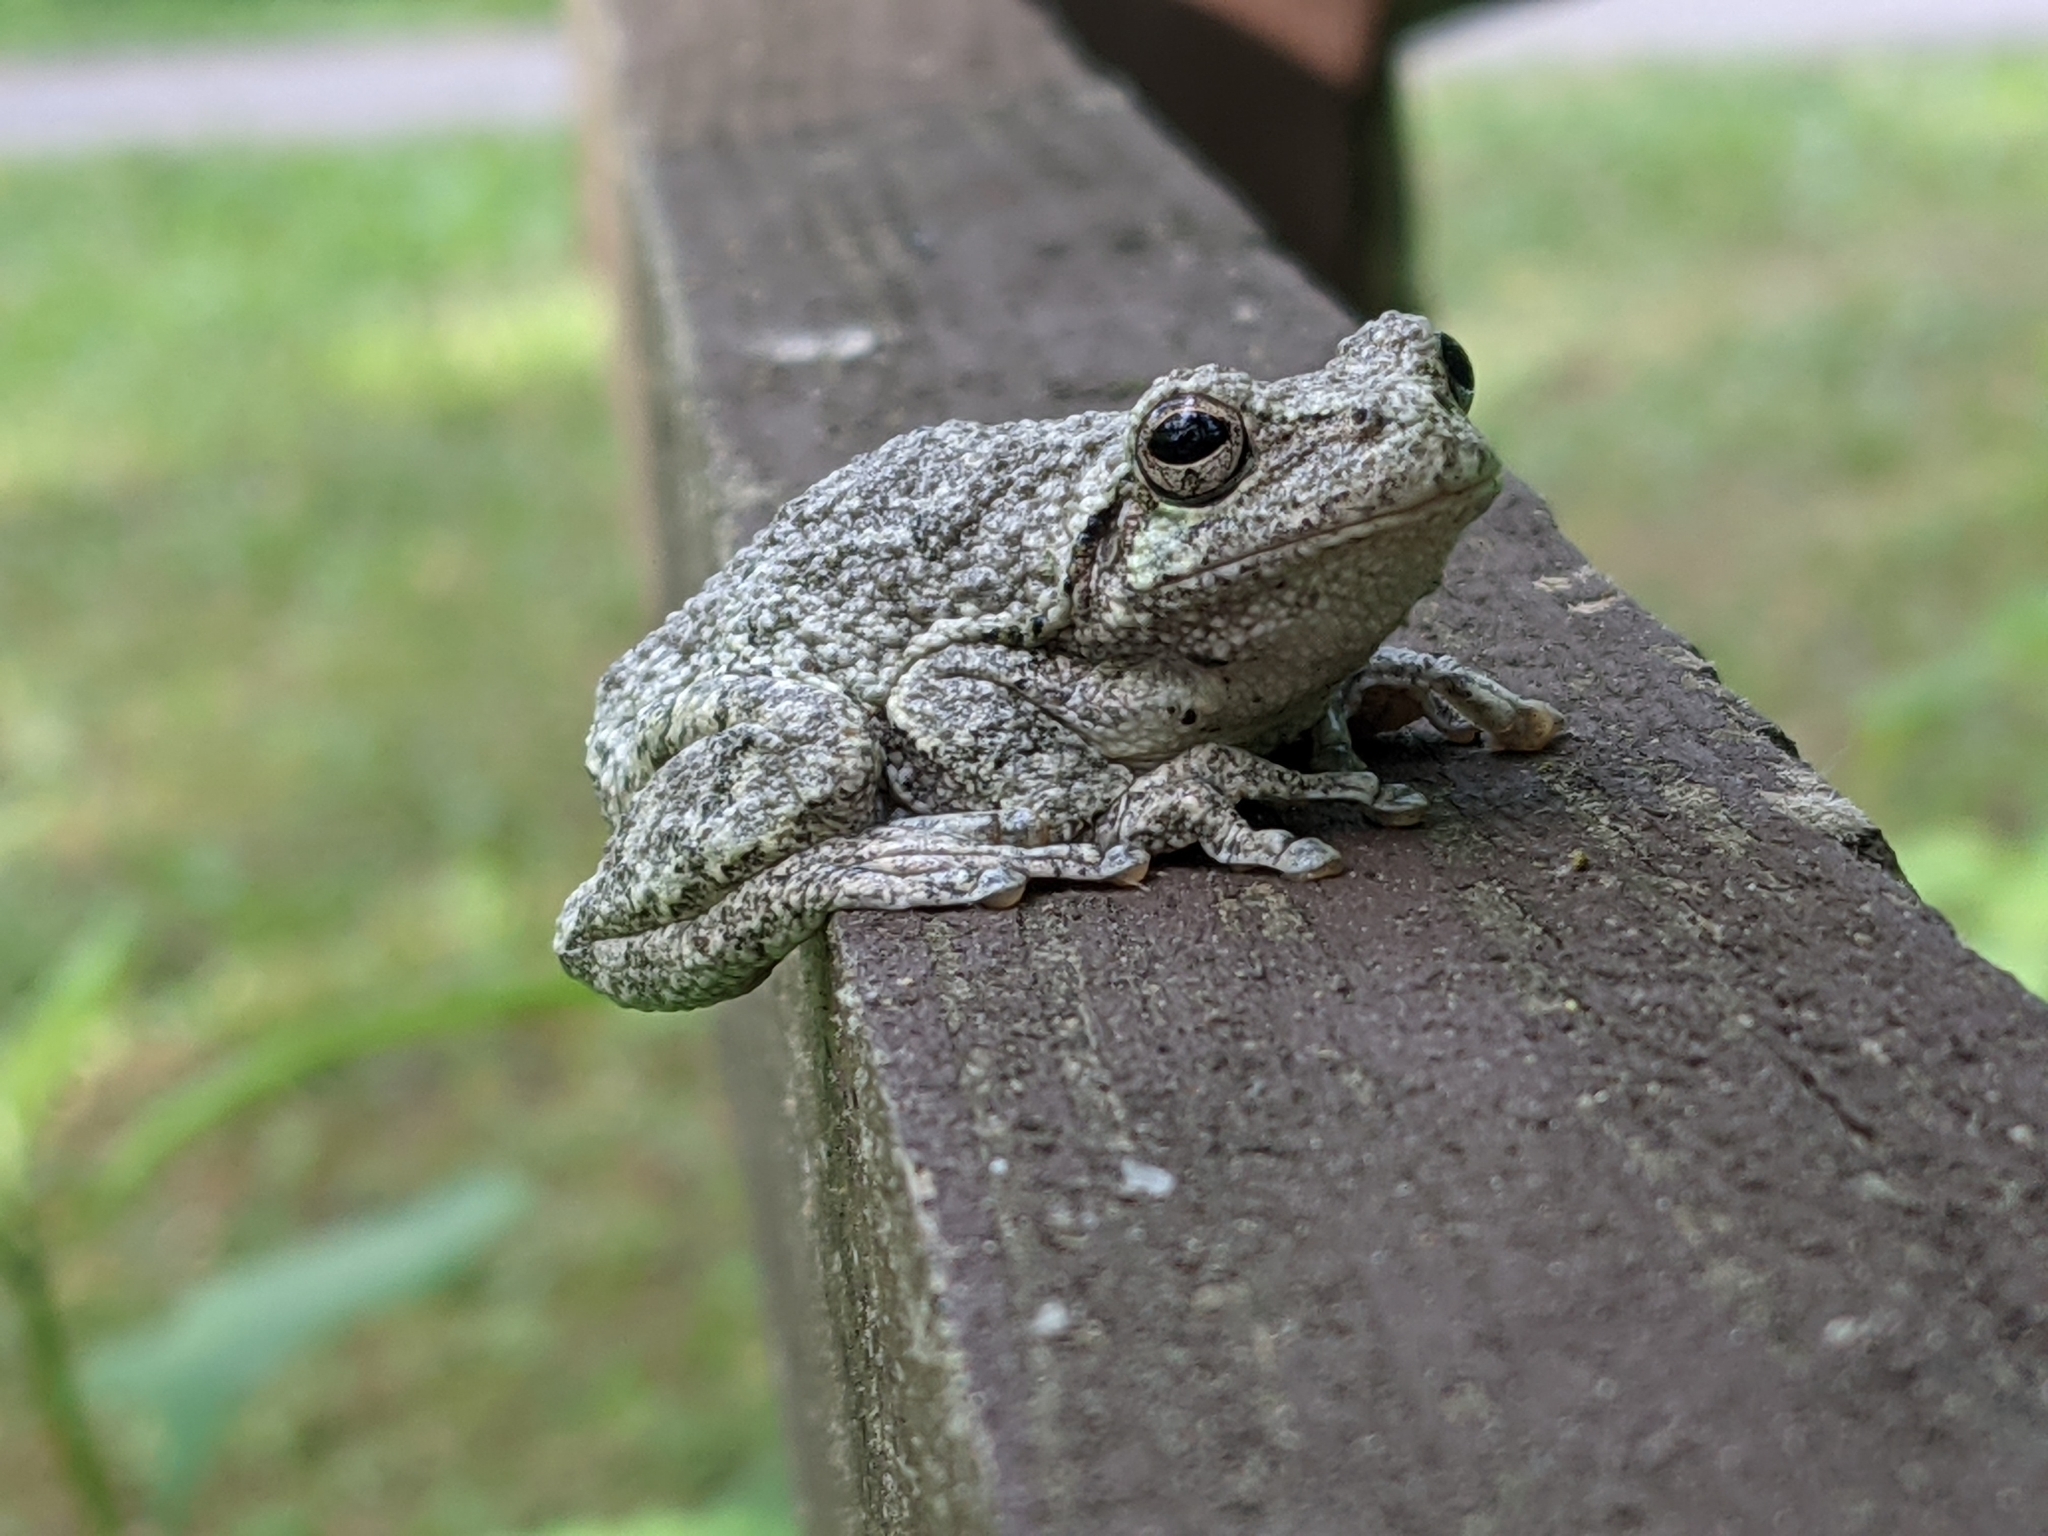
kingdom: Animalia
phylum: Chordata
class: Amphibia
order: Anura
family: Hylidae
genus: Hyla
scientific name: Hyla
